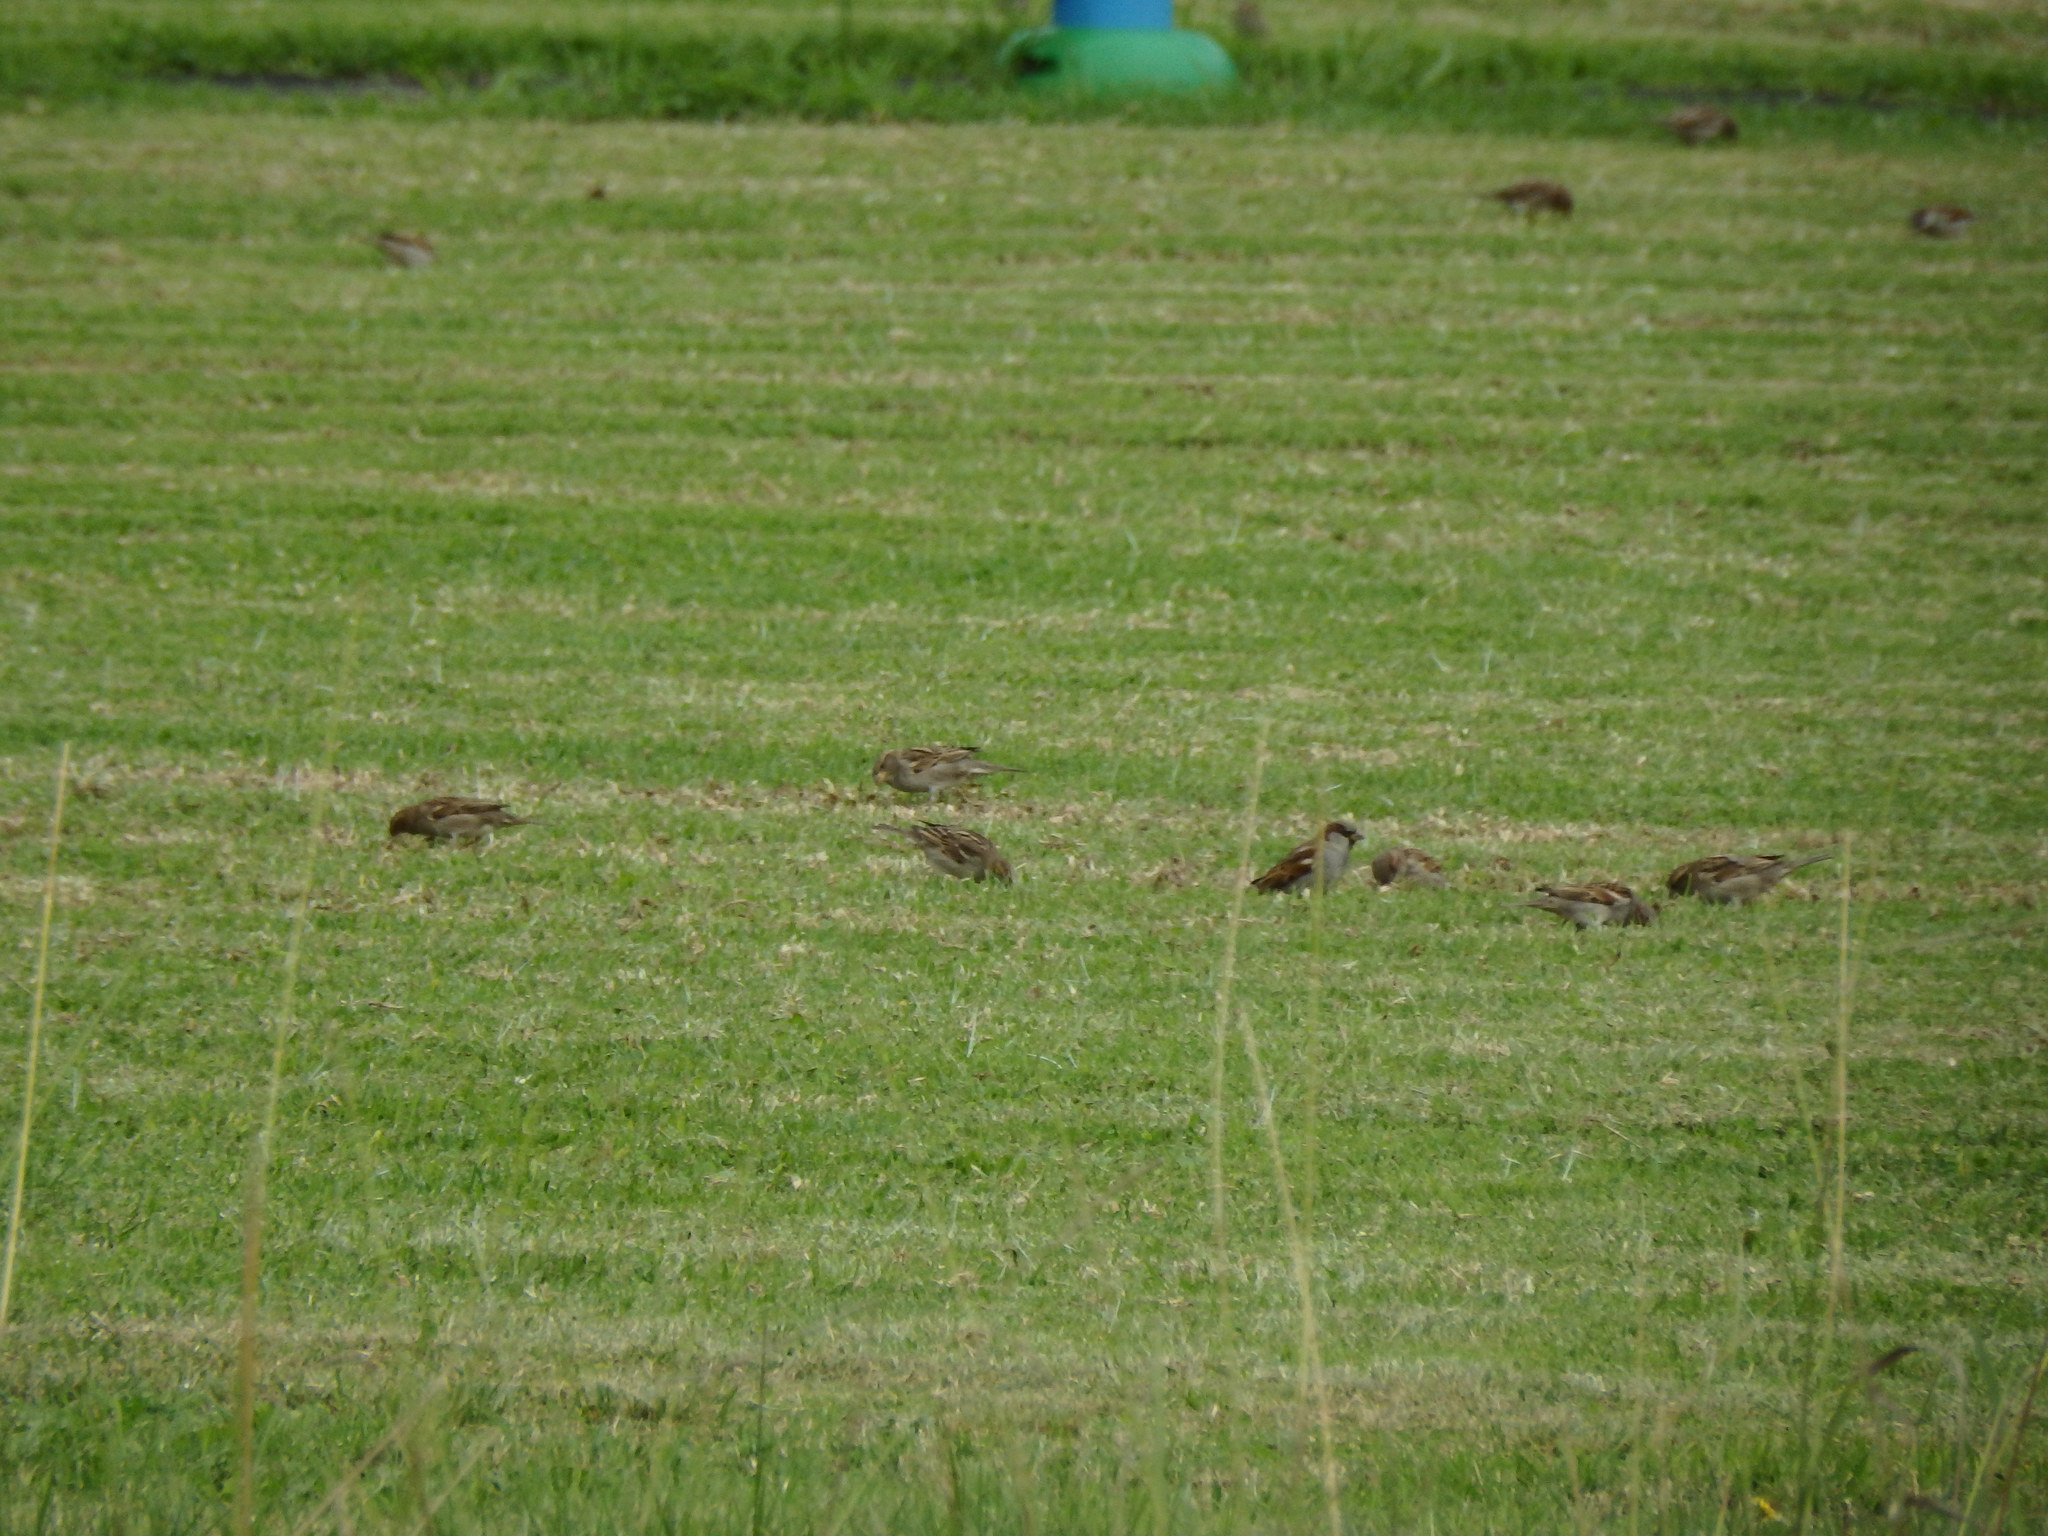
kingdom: Animalia
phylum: Chordata
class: Aves
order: Passeriformes
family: Passeridae
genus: Passer
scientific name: Passer domesticus
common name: House sparrow
